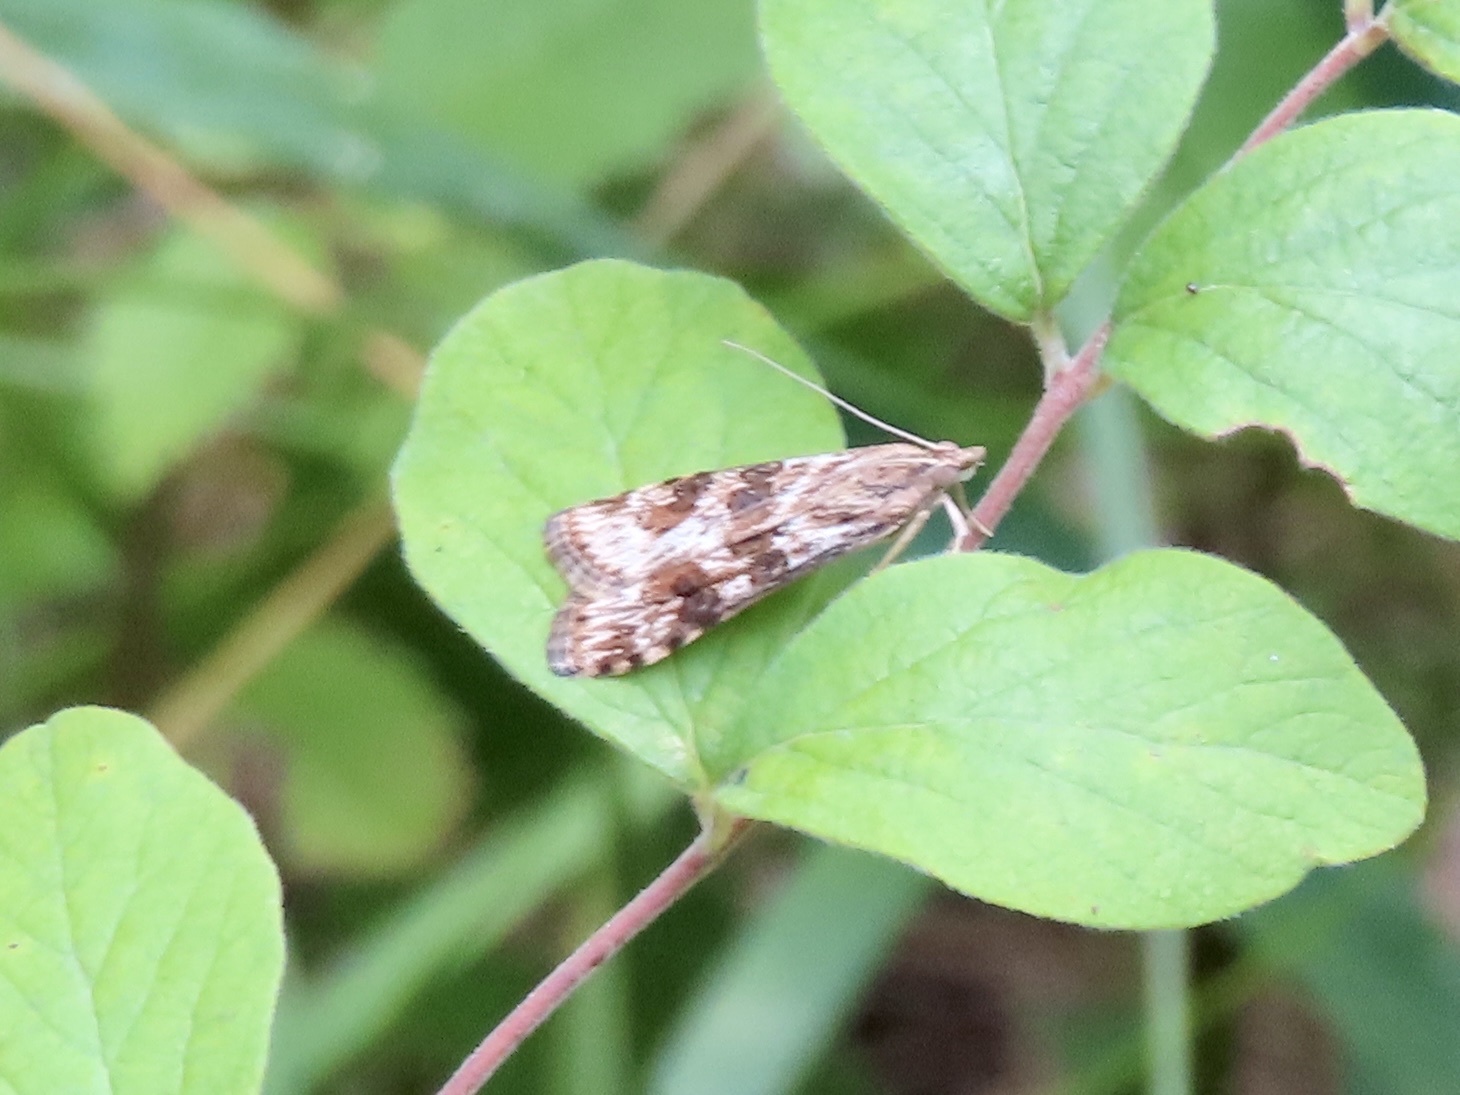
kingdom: Animalia
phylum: Arthropoda
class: Insecta
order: Lepidoptera
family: Crambidae
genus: Nomophila
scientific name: Nomophila nearctica
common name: American rush veneer
